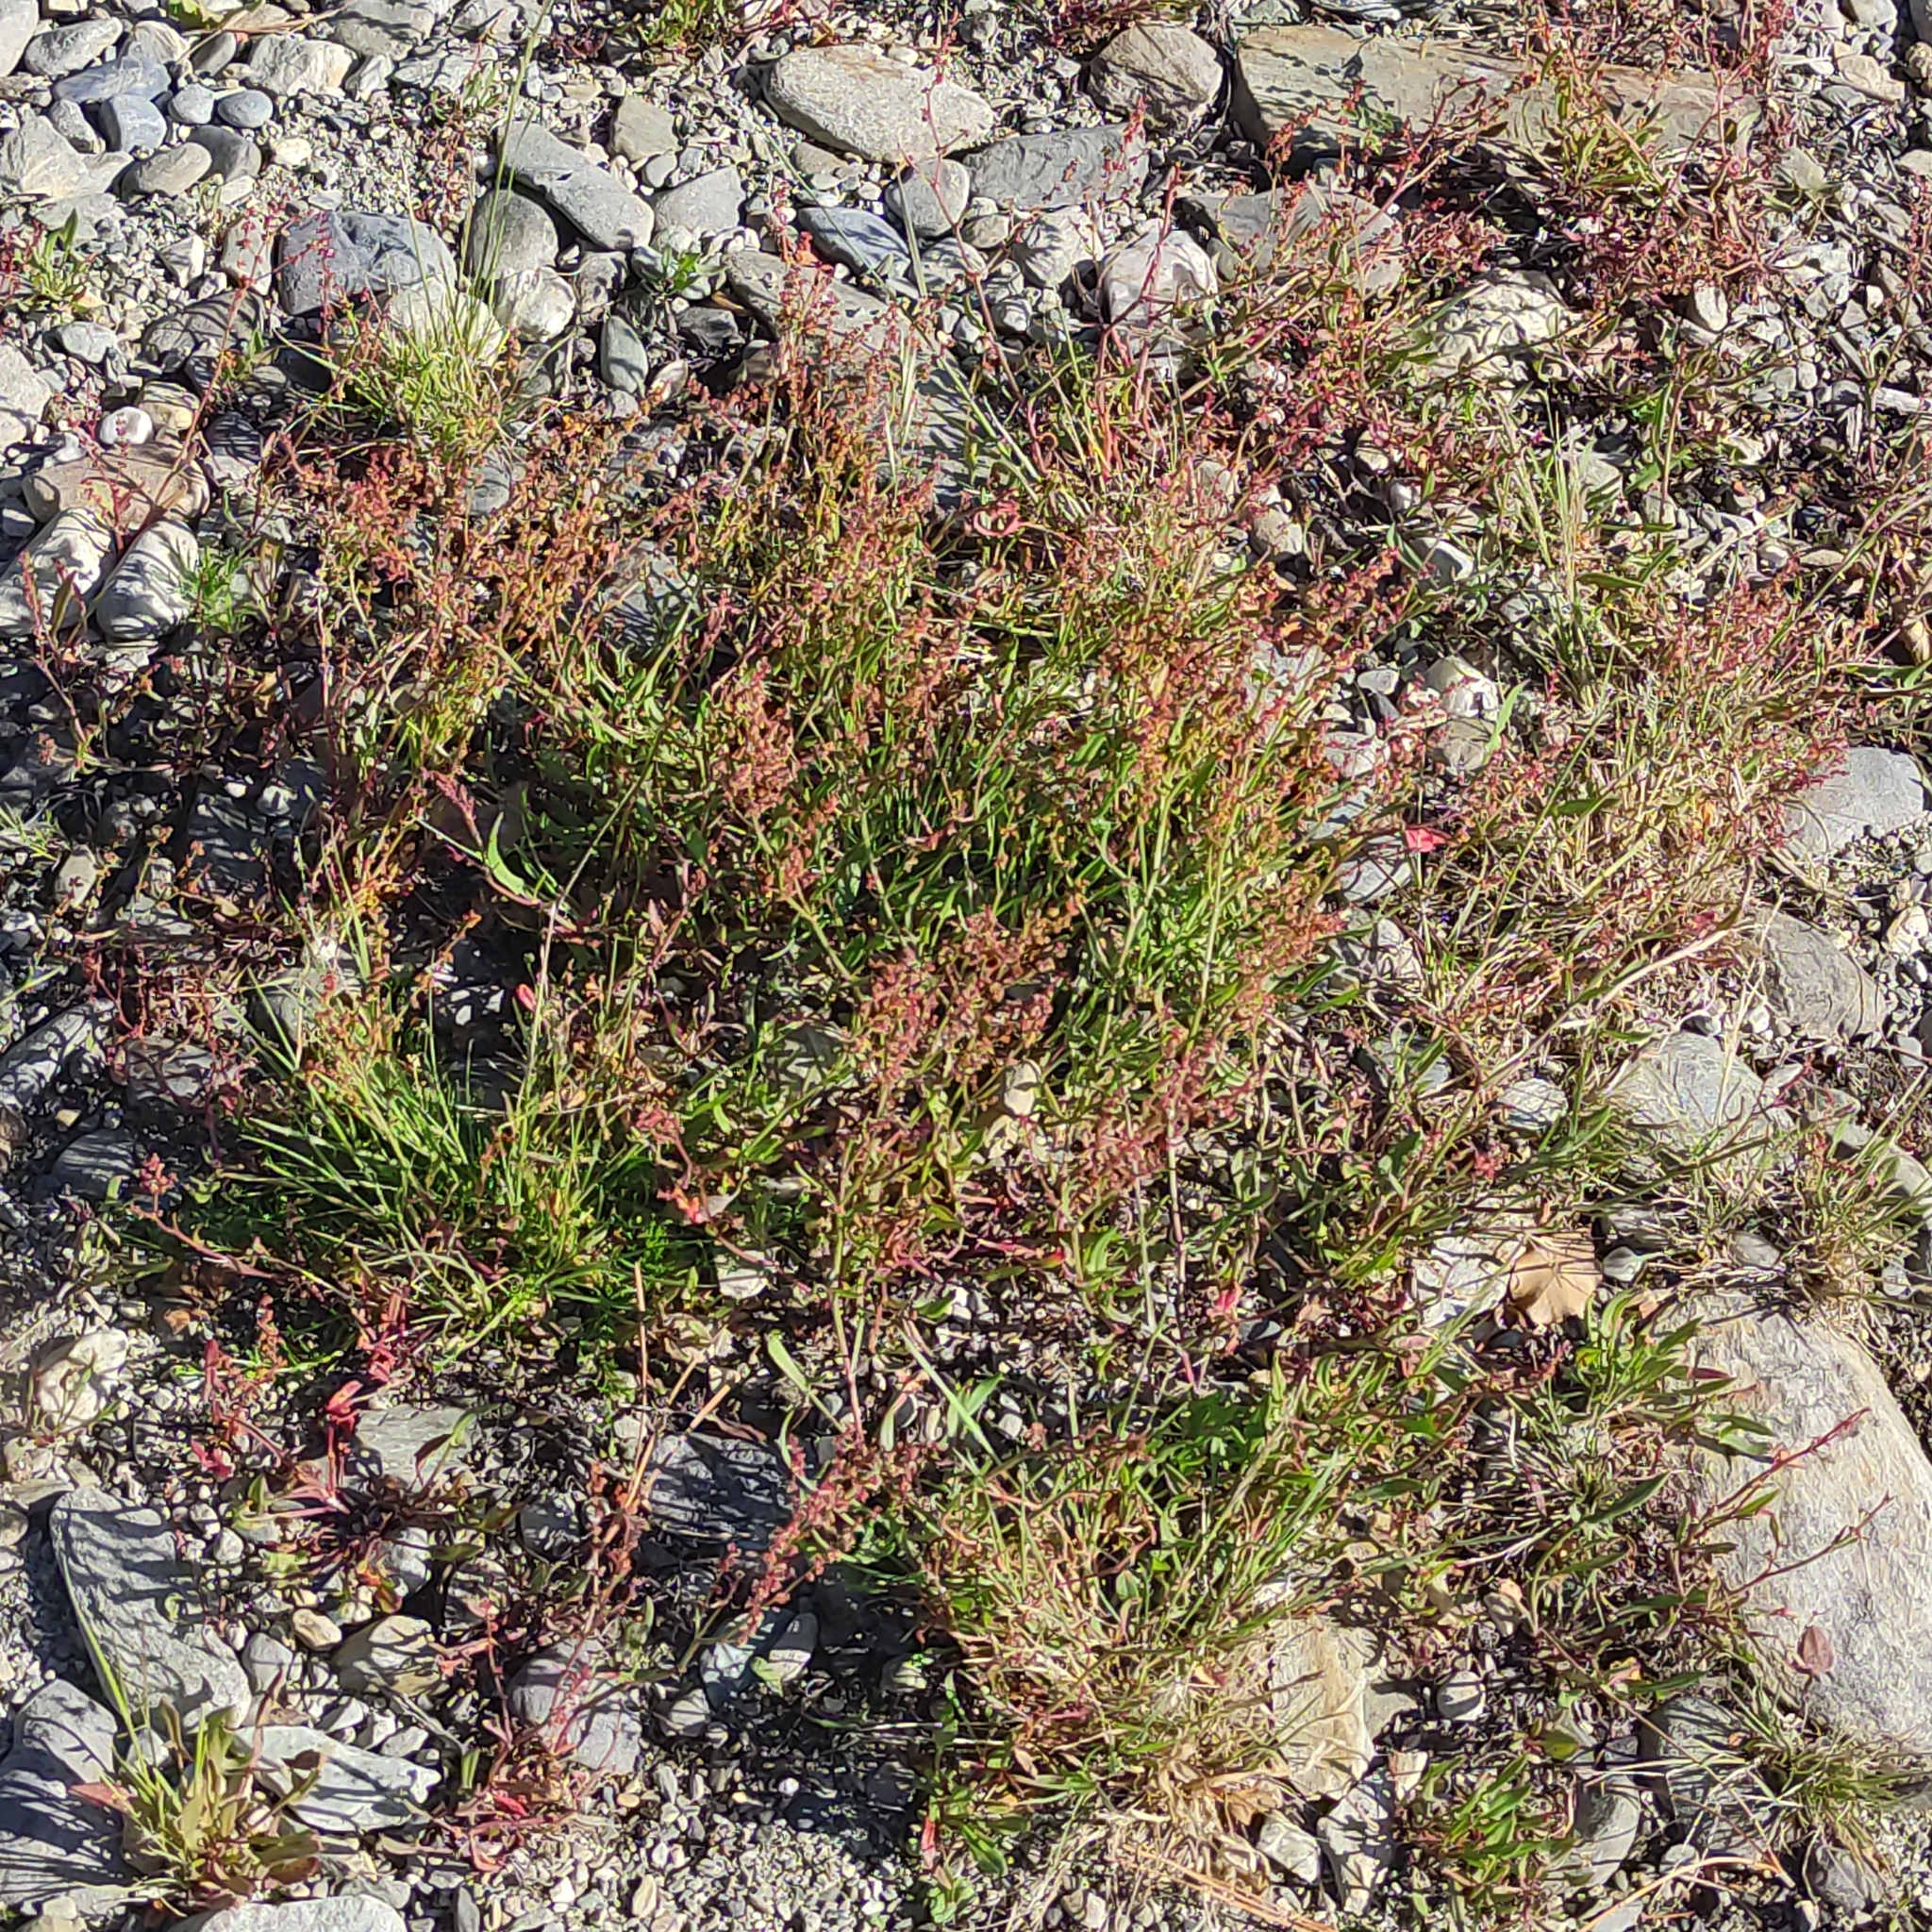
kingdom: Plantae
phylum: Tracheophyta
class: Magnoliopsida
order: Caryophyllales
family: Polygonaceae
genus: Rumex
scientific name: Rumex acetosella
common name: Common sheep sorrel
